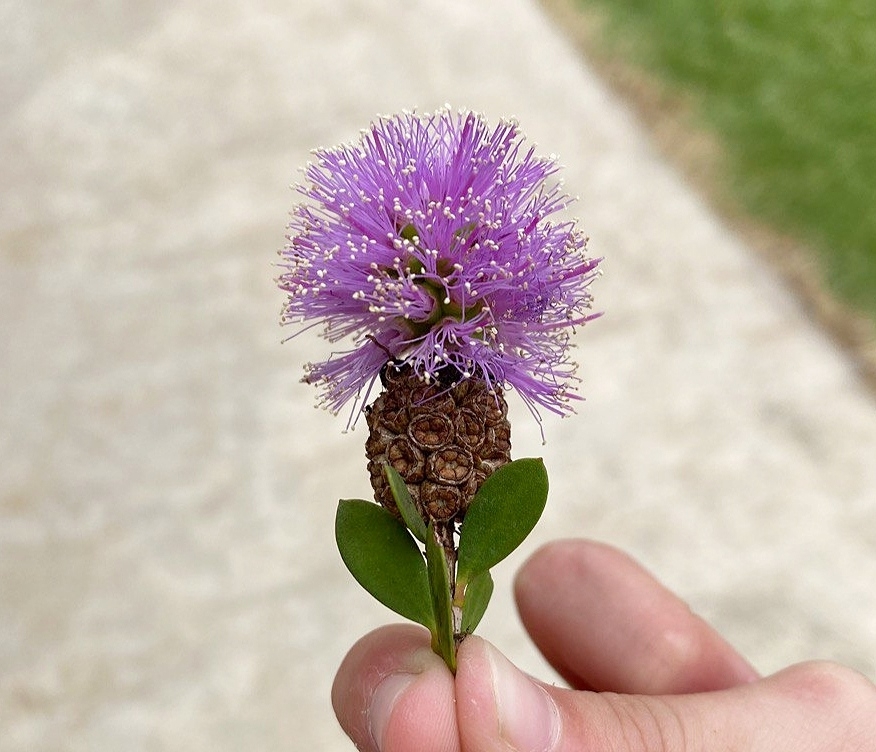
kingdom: Plantae
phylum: Tracheophyta
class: Magnoliopsida
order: Myrtales
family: Myrtaceae
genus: Melaleuca
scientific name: Melaleuca nesophila
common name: Mauve honey myrtle
